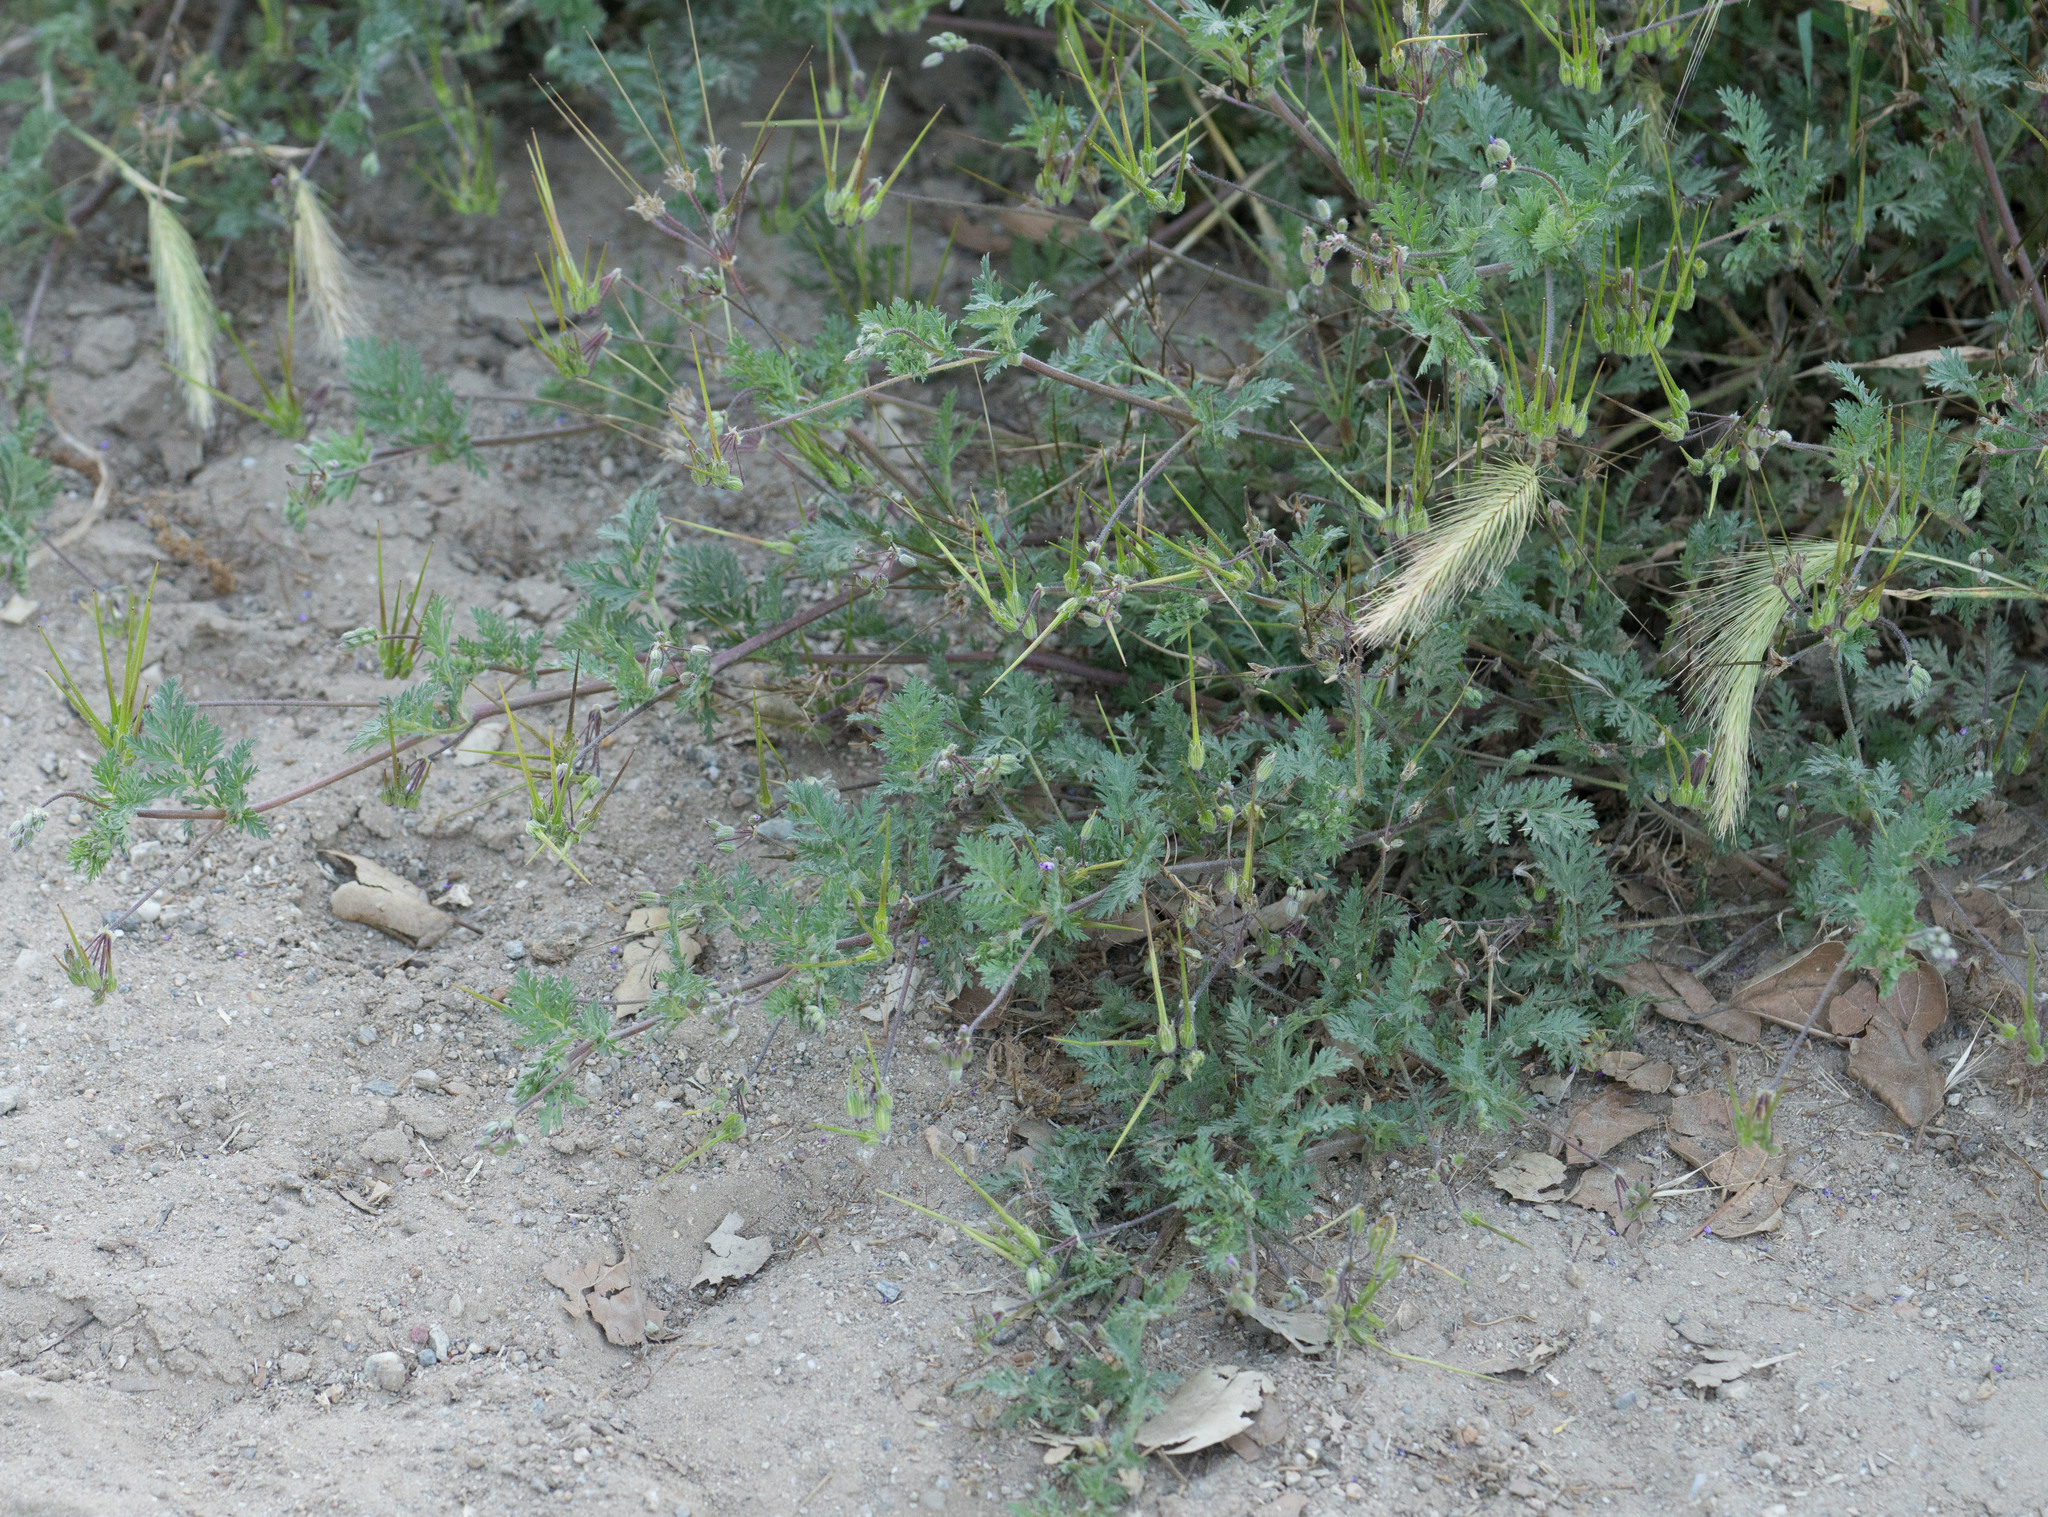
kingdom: Plantae
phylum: Tracheophyta
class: Magnoliopsida
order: Geraniales
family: Geraniaceae
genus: Erodium
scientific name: Erodium cicutarium
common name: Common stork's-bill
